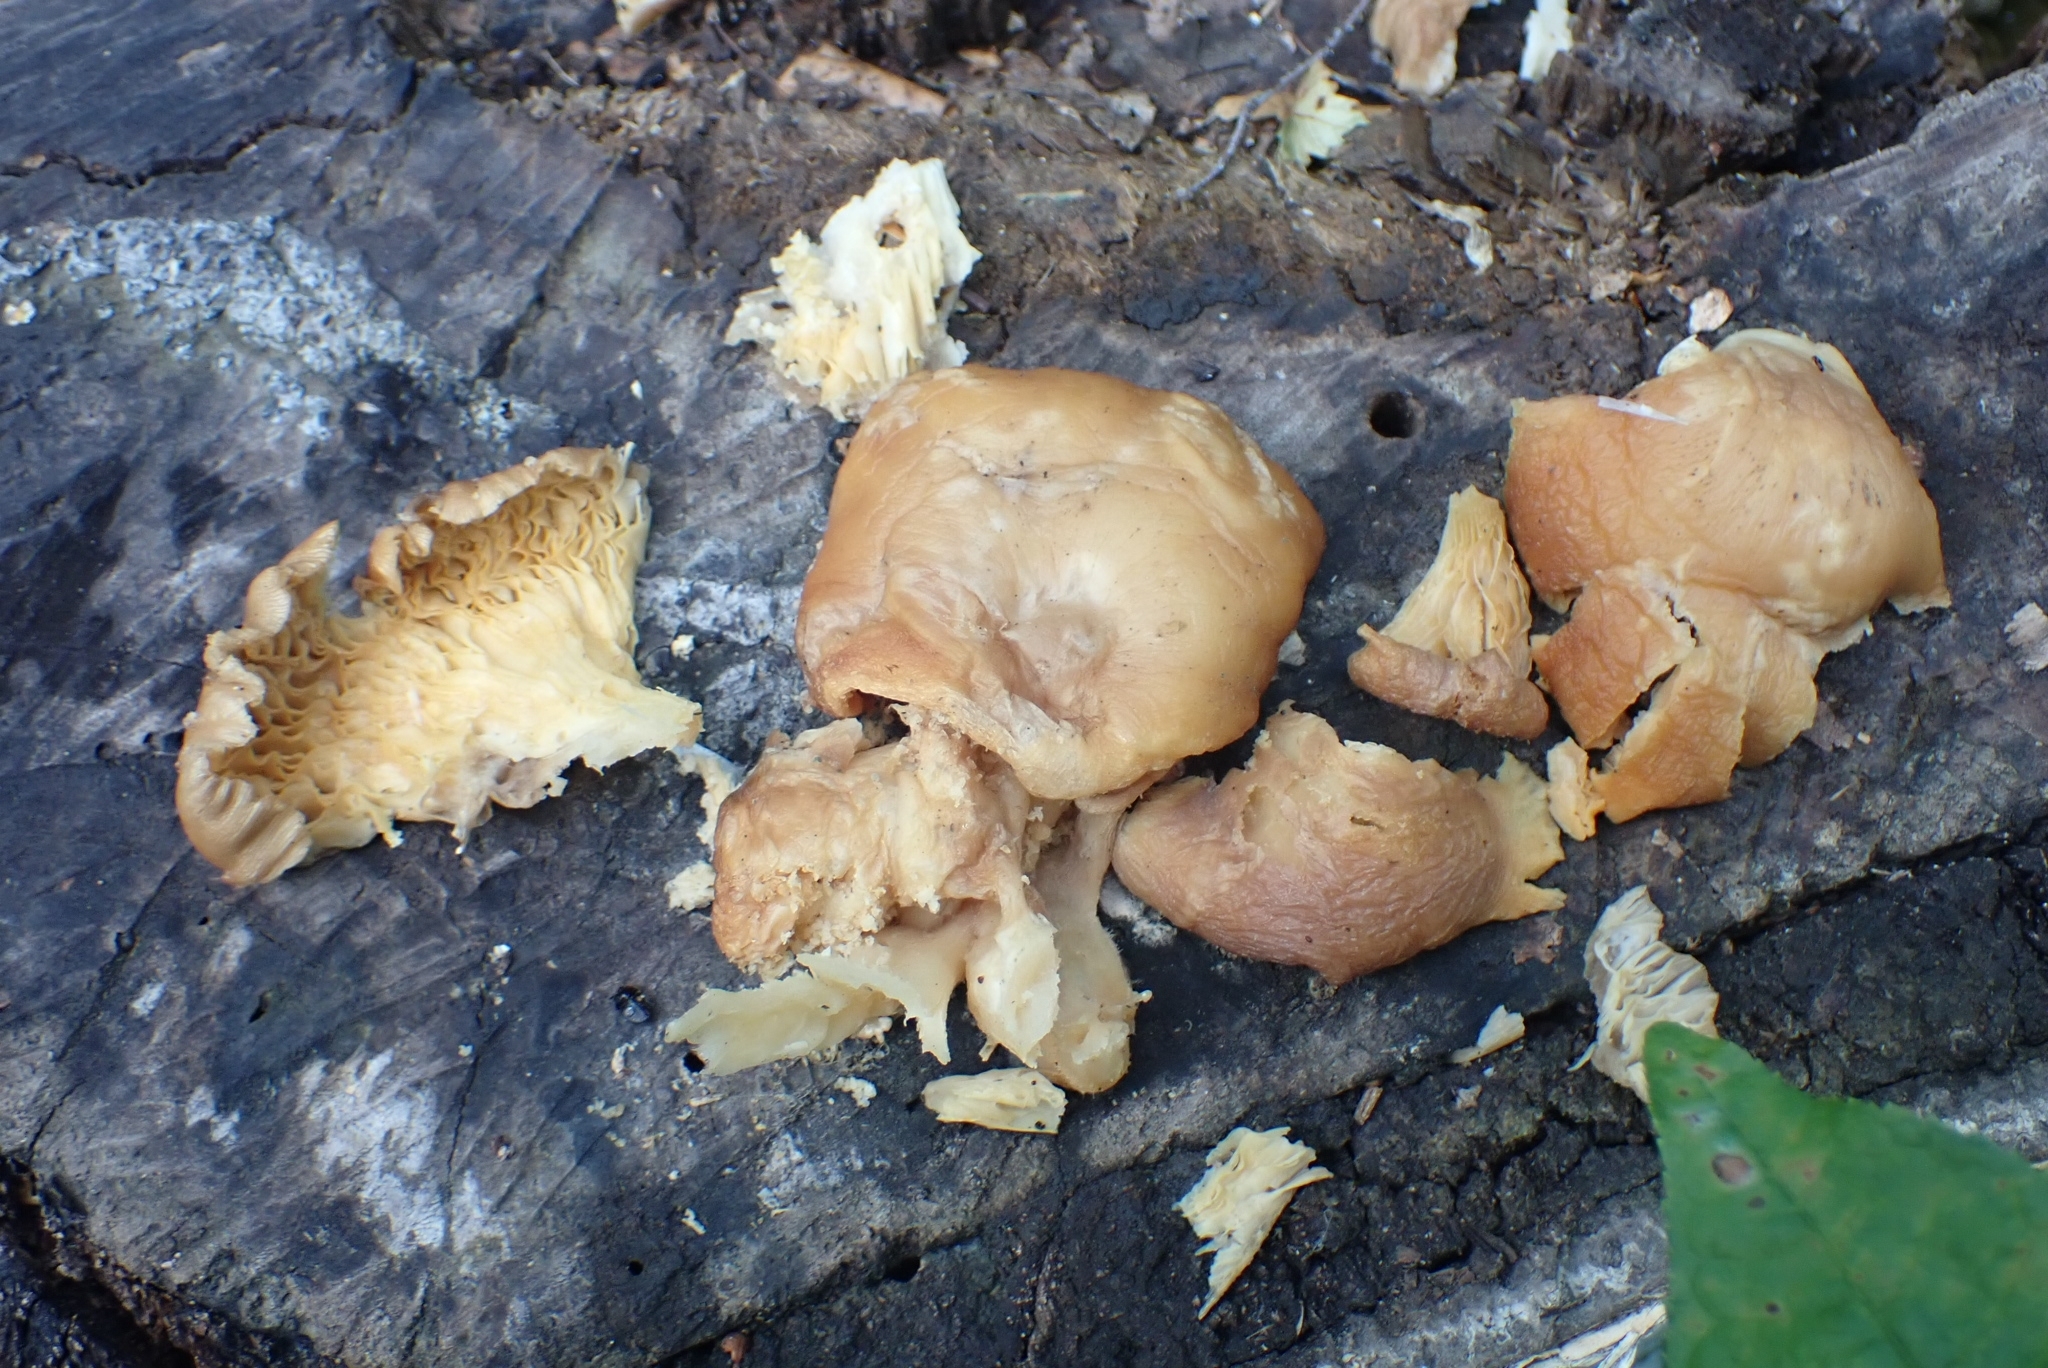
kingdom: Fungi
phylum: Basidiomycota
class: Agaricomycetes
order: Agaricales
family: Pleurotaceae
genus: Pleurotus
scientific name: Pleurotus ostreatus
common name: Oyster mushroom
